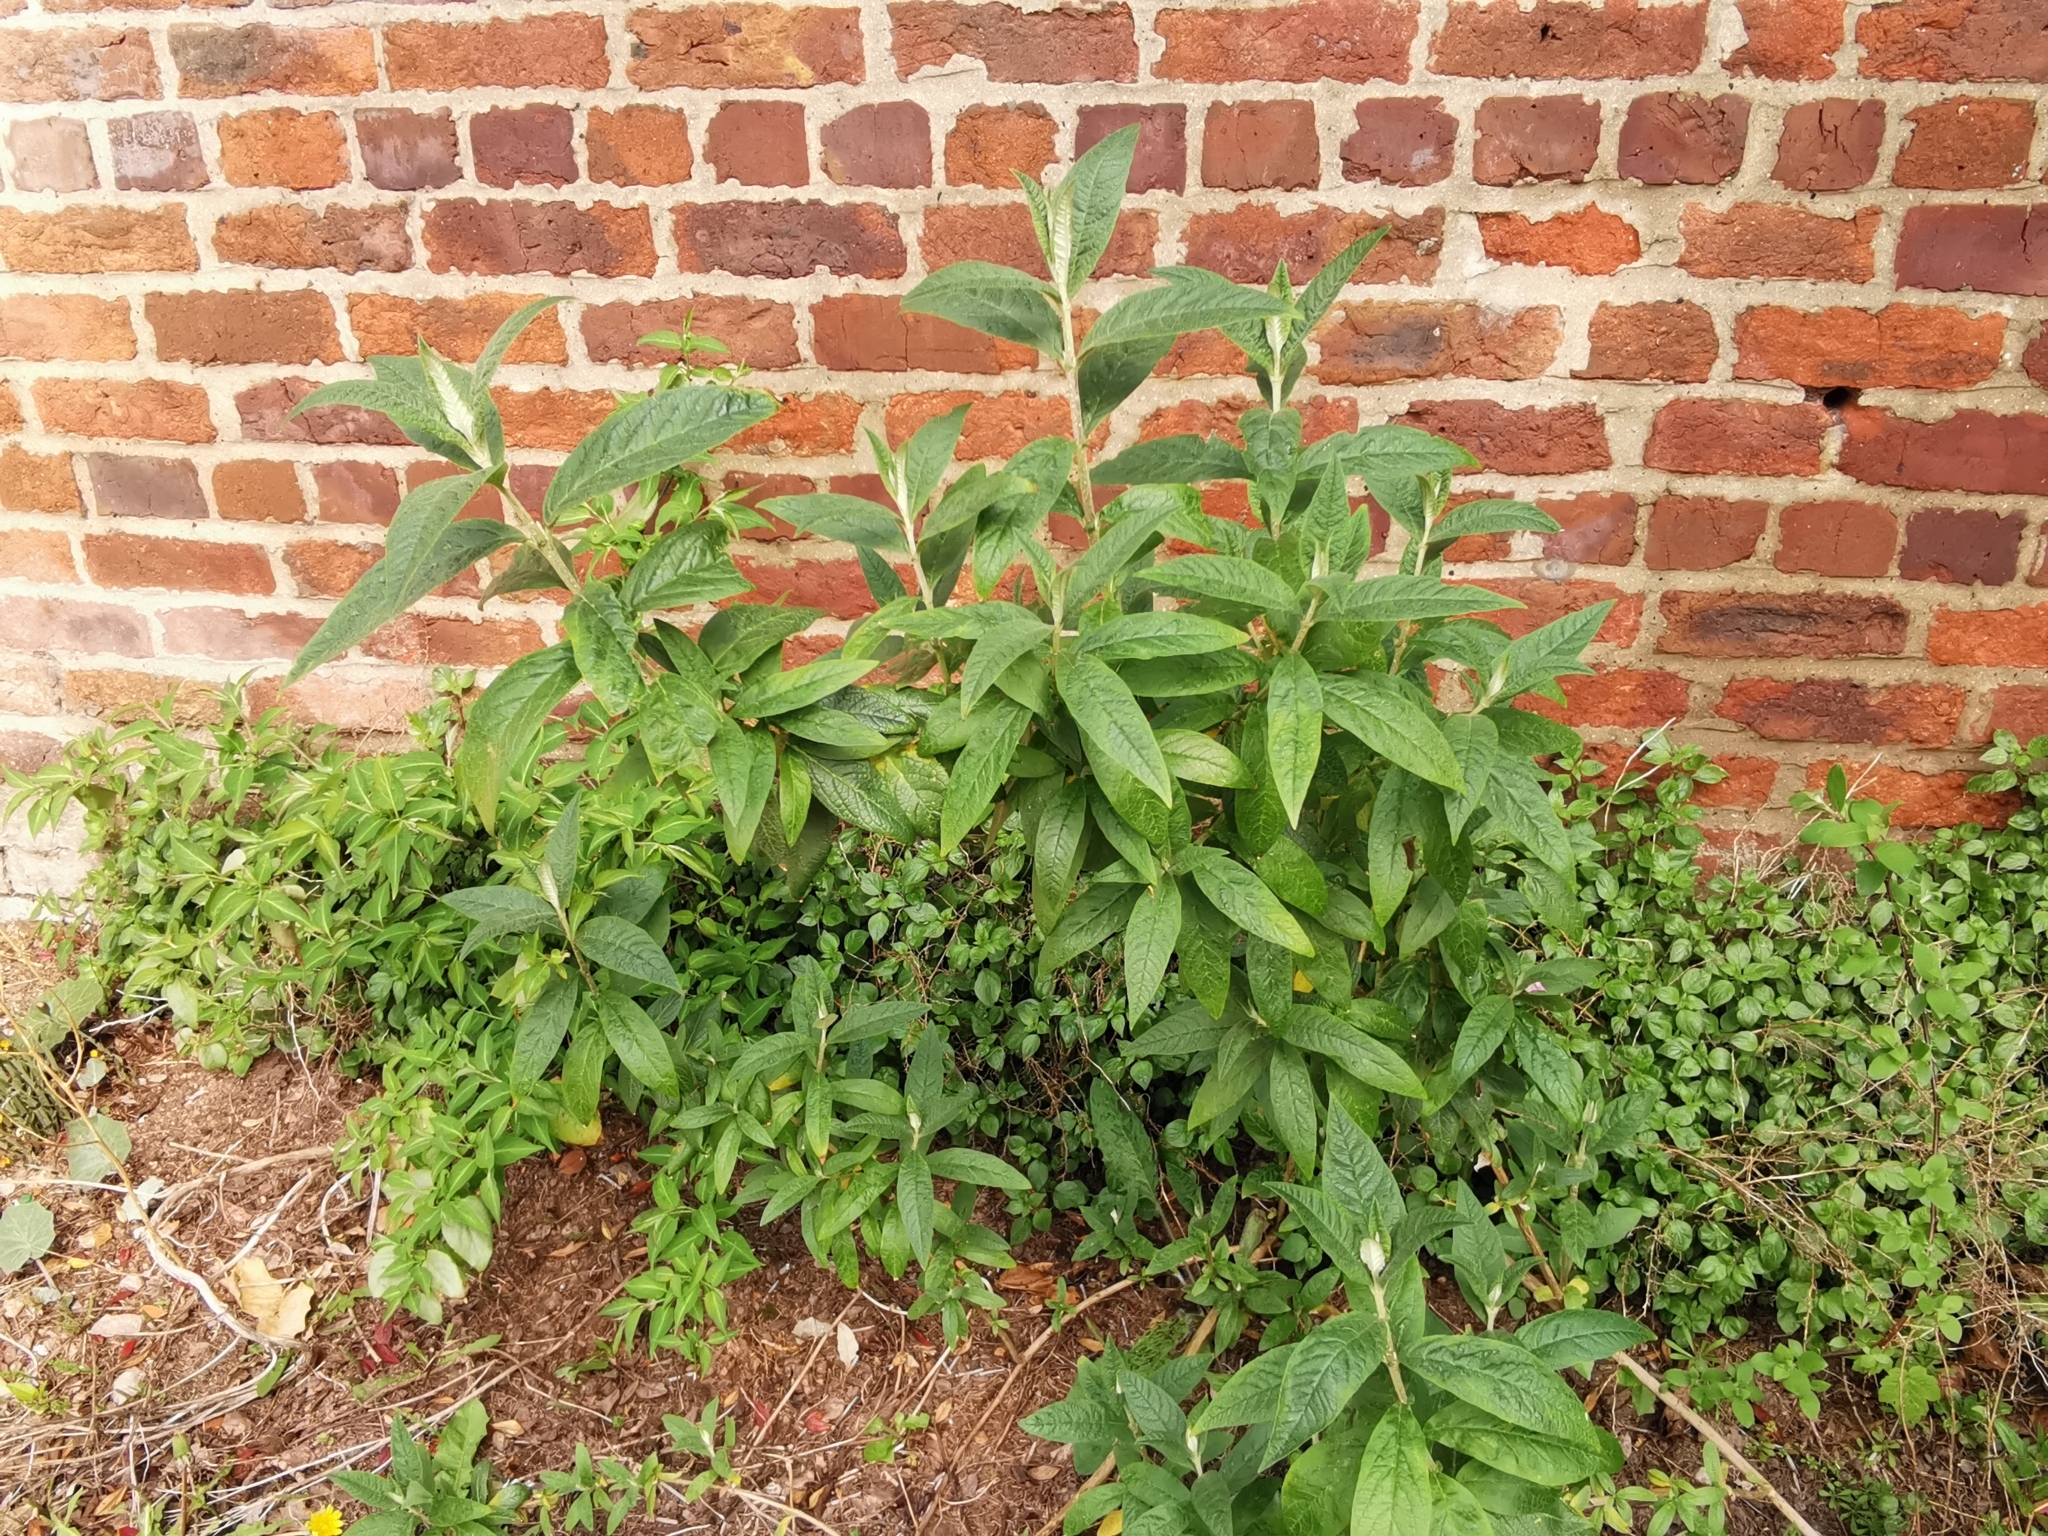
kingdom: Plantae
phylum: Tracheophyta
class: Magnoliopsida
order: Lamiales
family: Scrophulariaceae
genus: Buddleja
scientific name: Buddleja davidii
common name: Butterfly-bush
